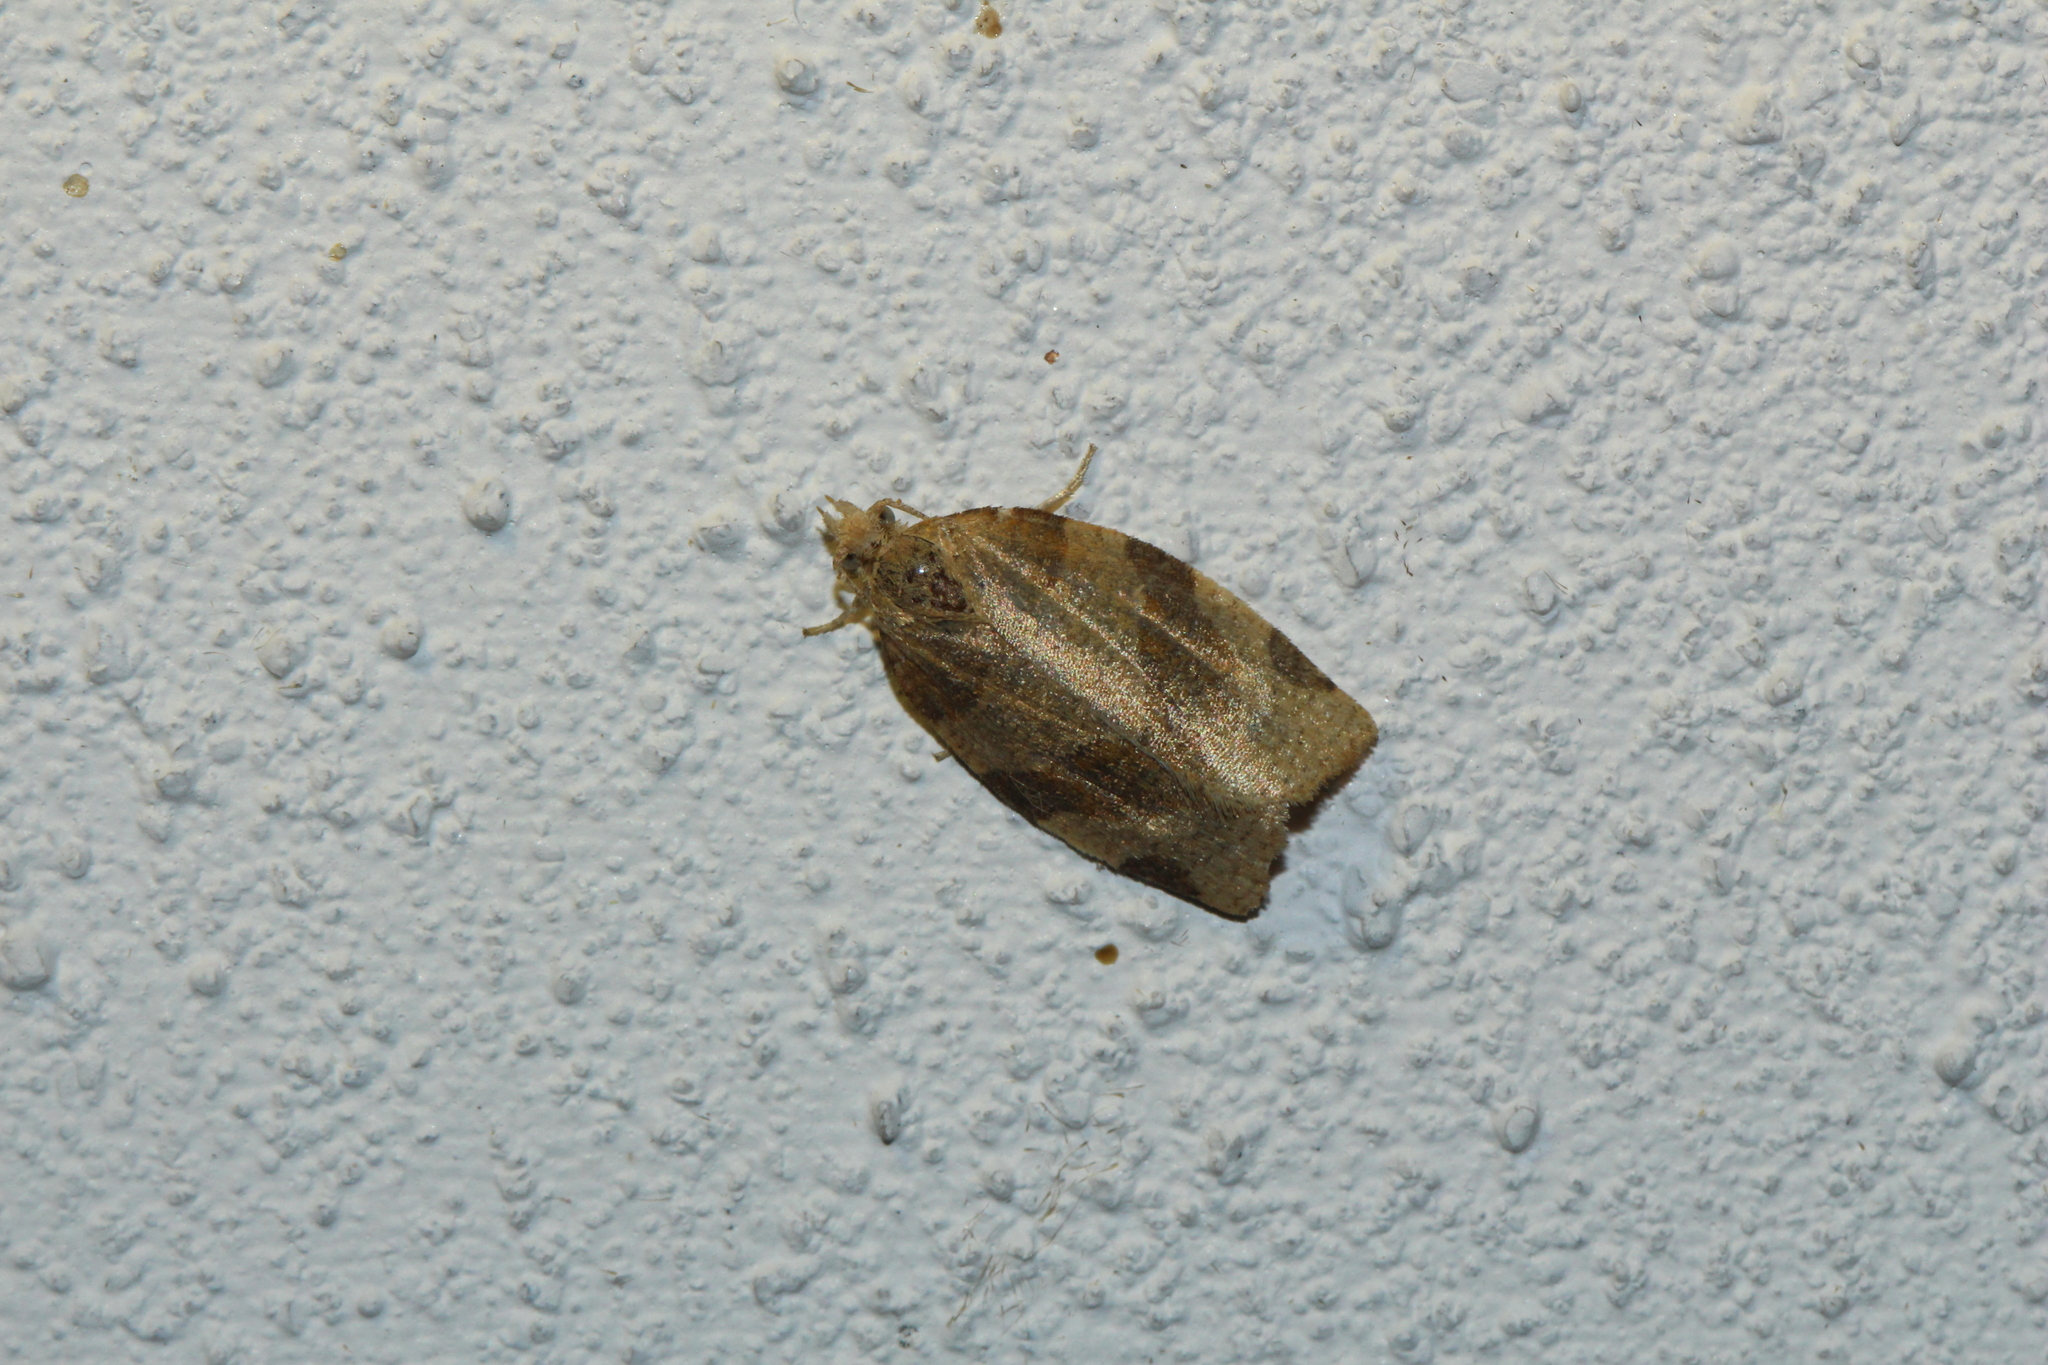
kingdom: Animalia
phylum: Arthropoda
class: Insecta
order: Lepidoptera
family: Tortricidae
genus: Pandemis
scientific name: Pandemis cerasana
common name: Barred fruit-tree tortrix
